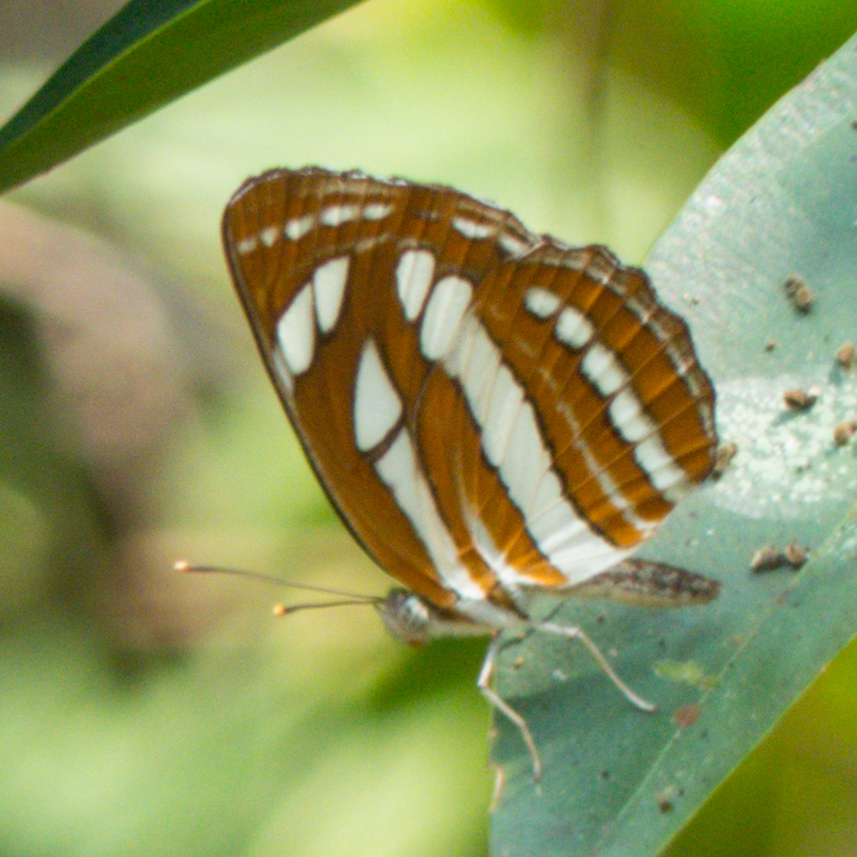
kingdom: Animalia
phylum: Arthropoda
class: Insecta
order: Lepidoptera
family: Nymphalidae
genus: Neptis
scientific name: Neptis hylas
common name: Common sailer
